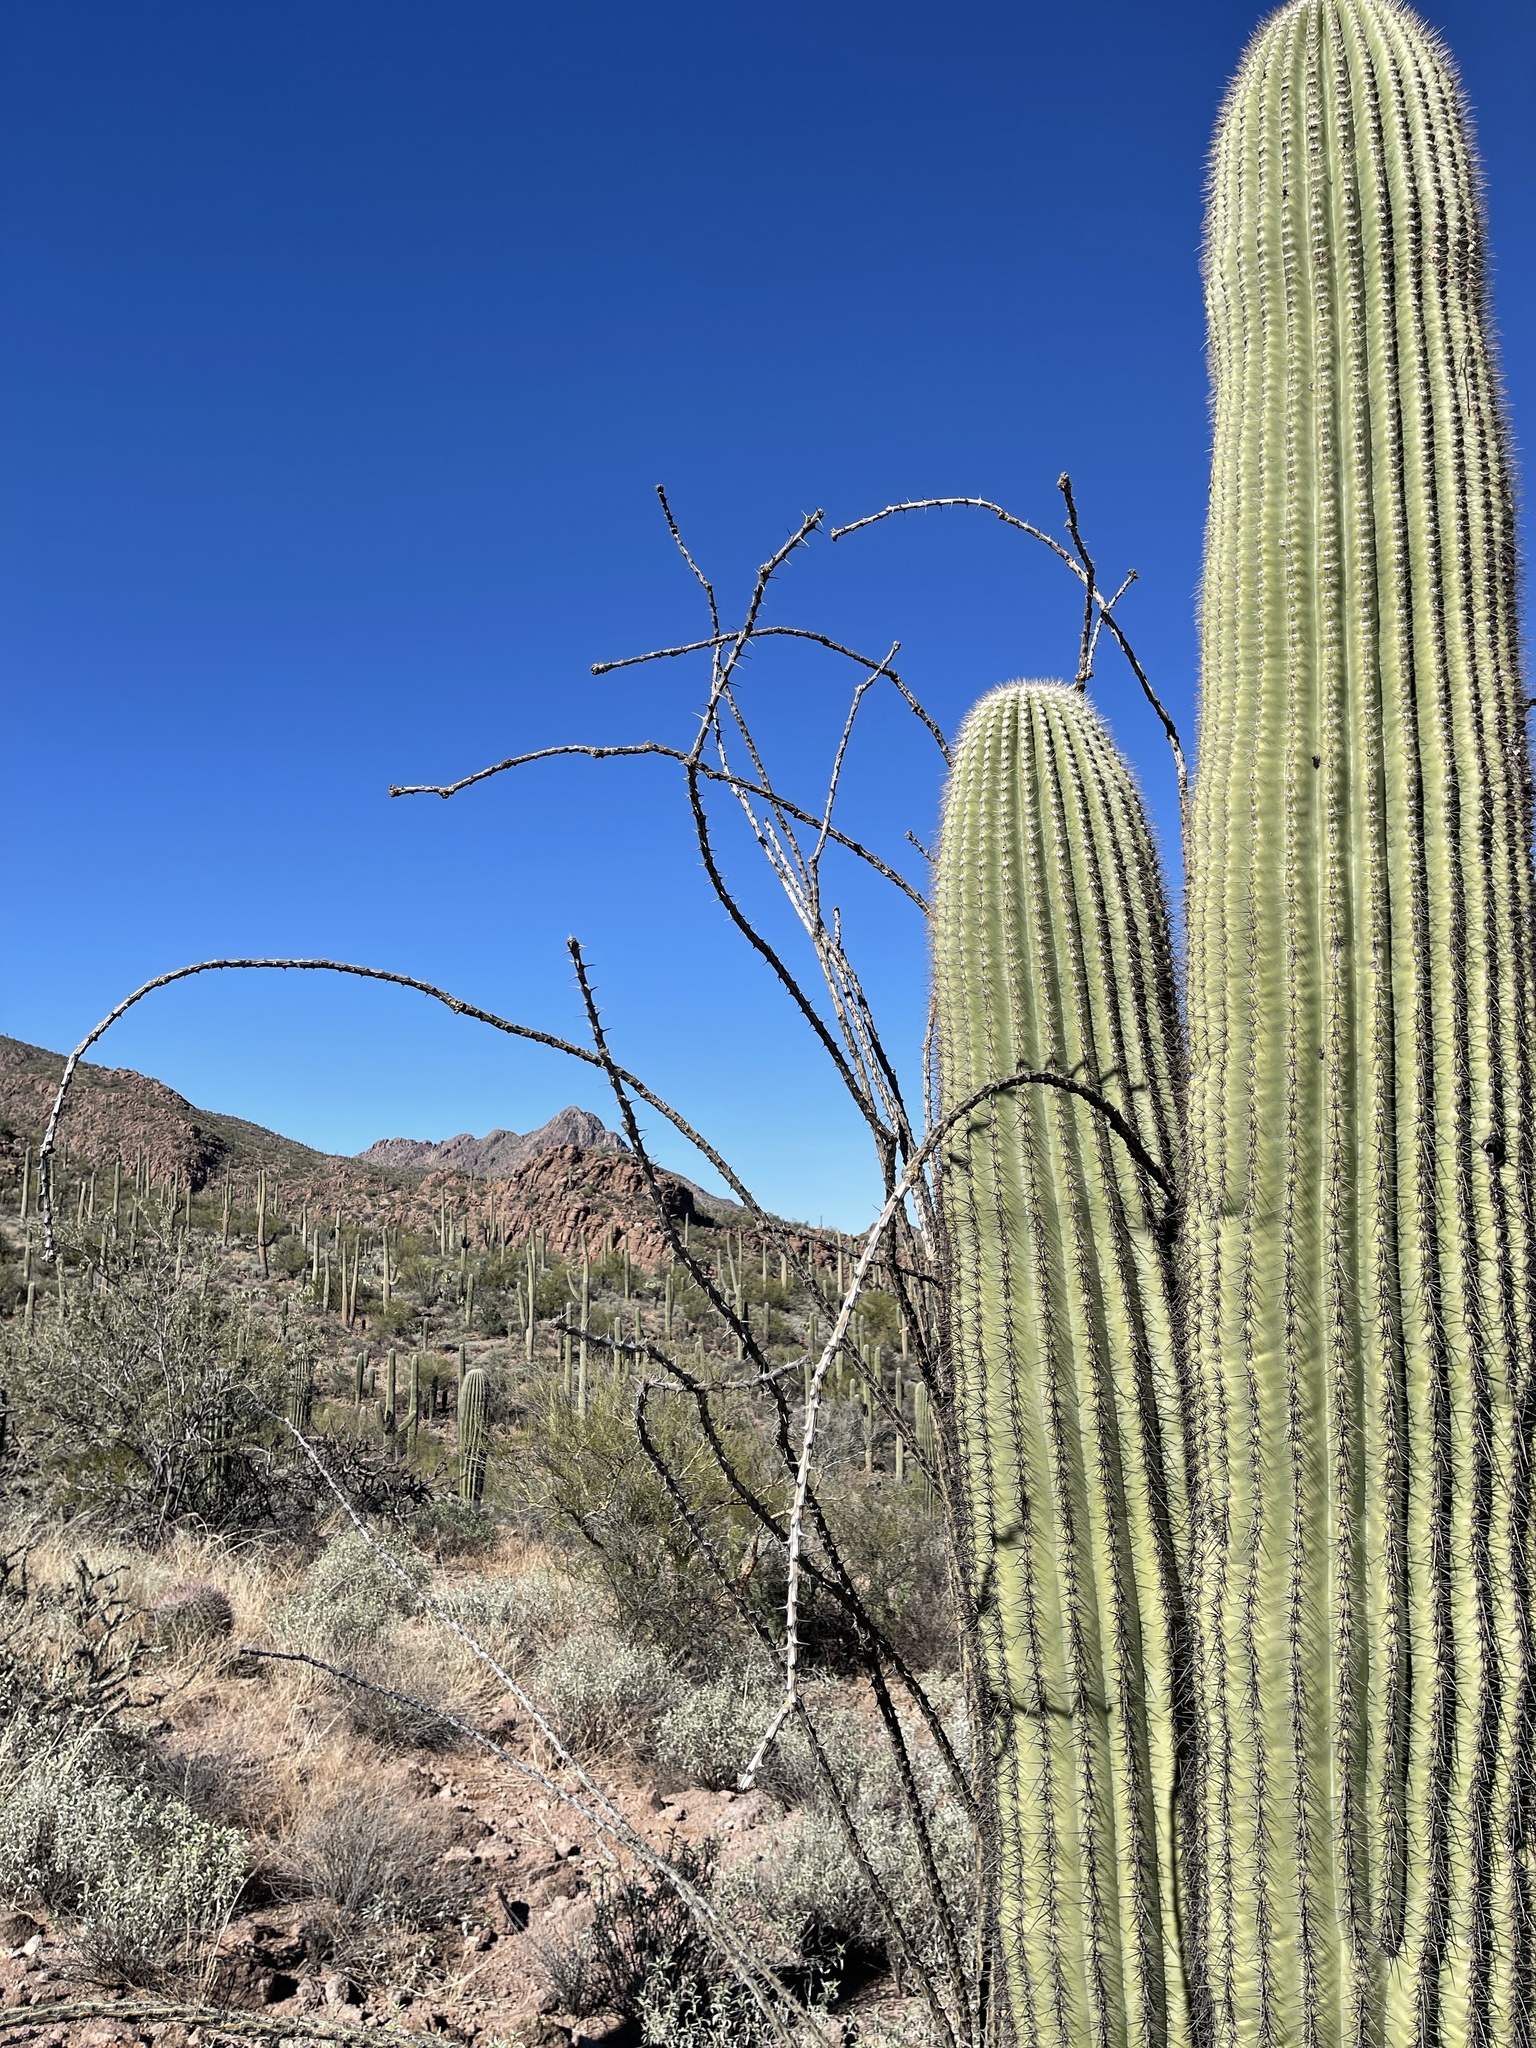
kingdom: Plantae
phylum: Tracheophyta
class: Magnoliopsida
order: Ericales
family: Fouquieriaceae
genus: Fouquieria
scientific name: Fouquieria splendens
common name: Vine-cactus
